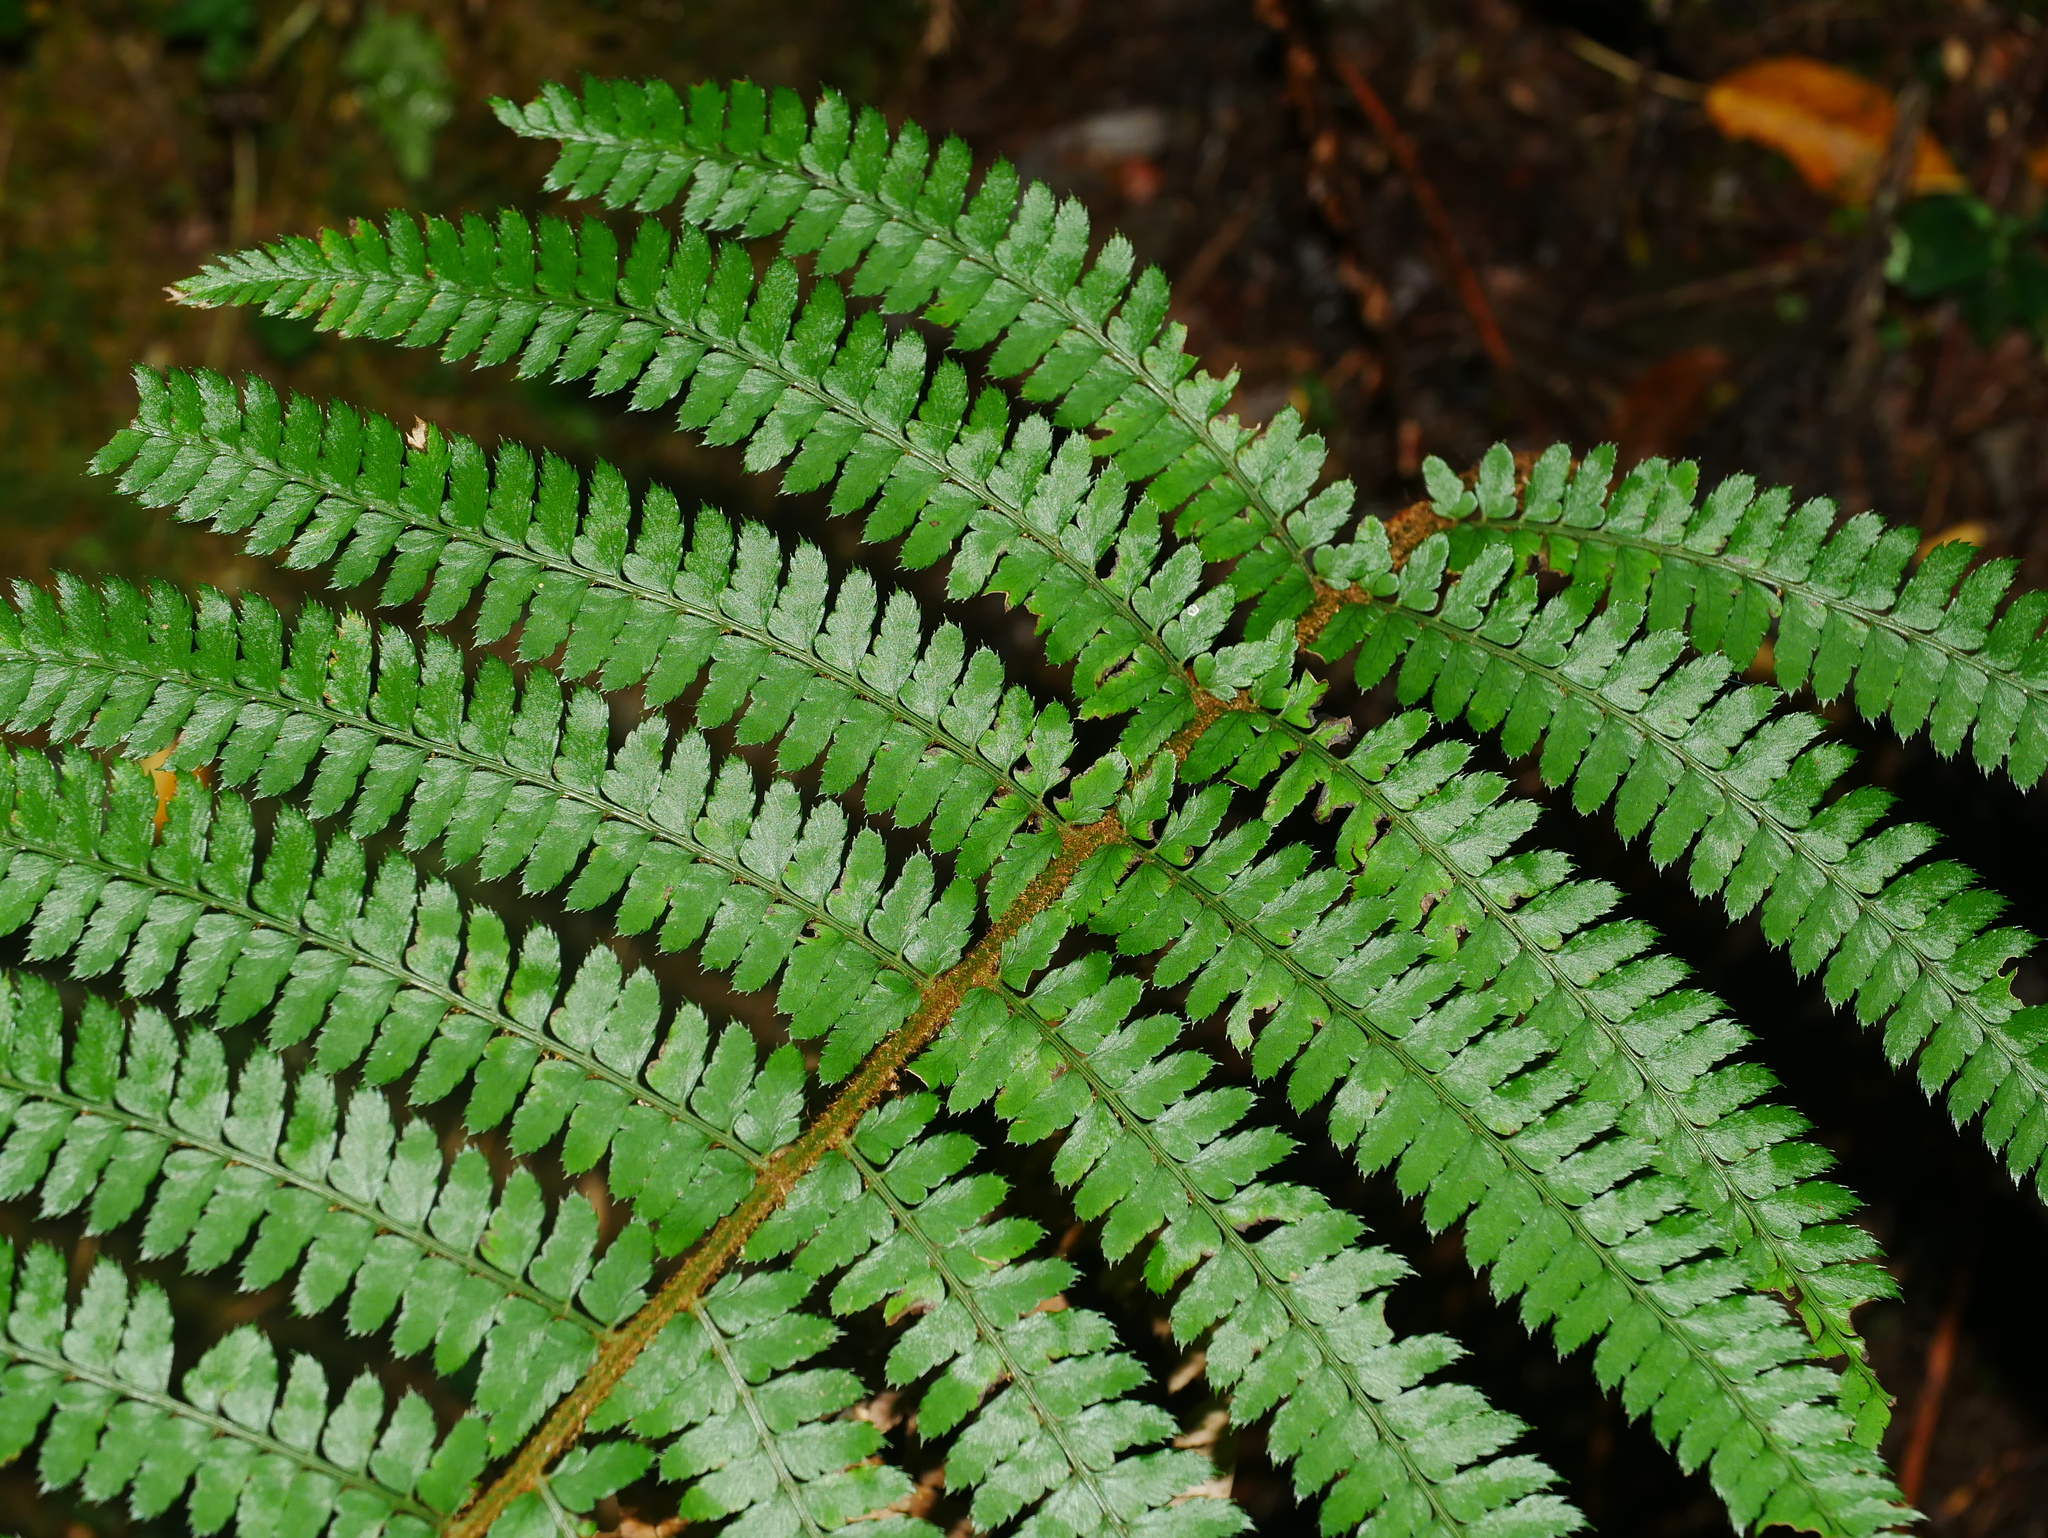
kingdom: Plantae
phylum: Tracheophyta
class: Polypodiopsida
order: Polypodiales
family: Dryopteridaceae
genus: Polystichum
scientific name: Polystichum mucronifolium
